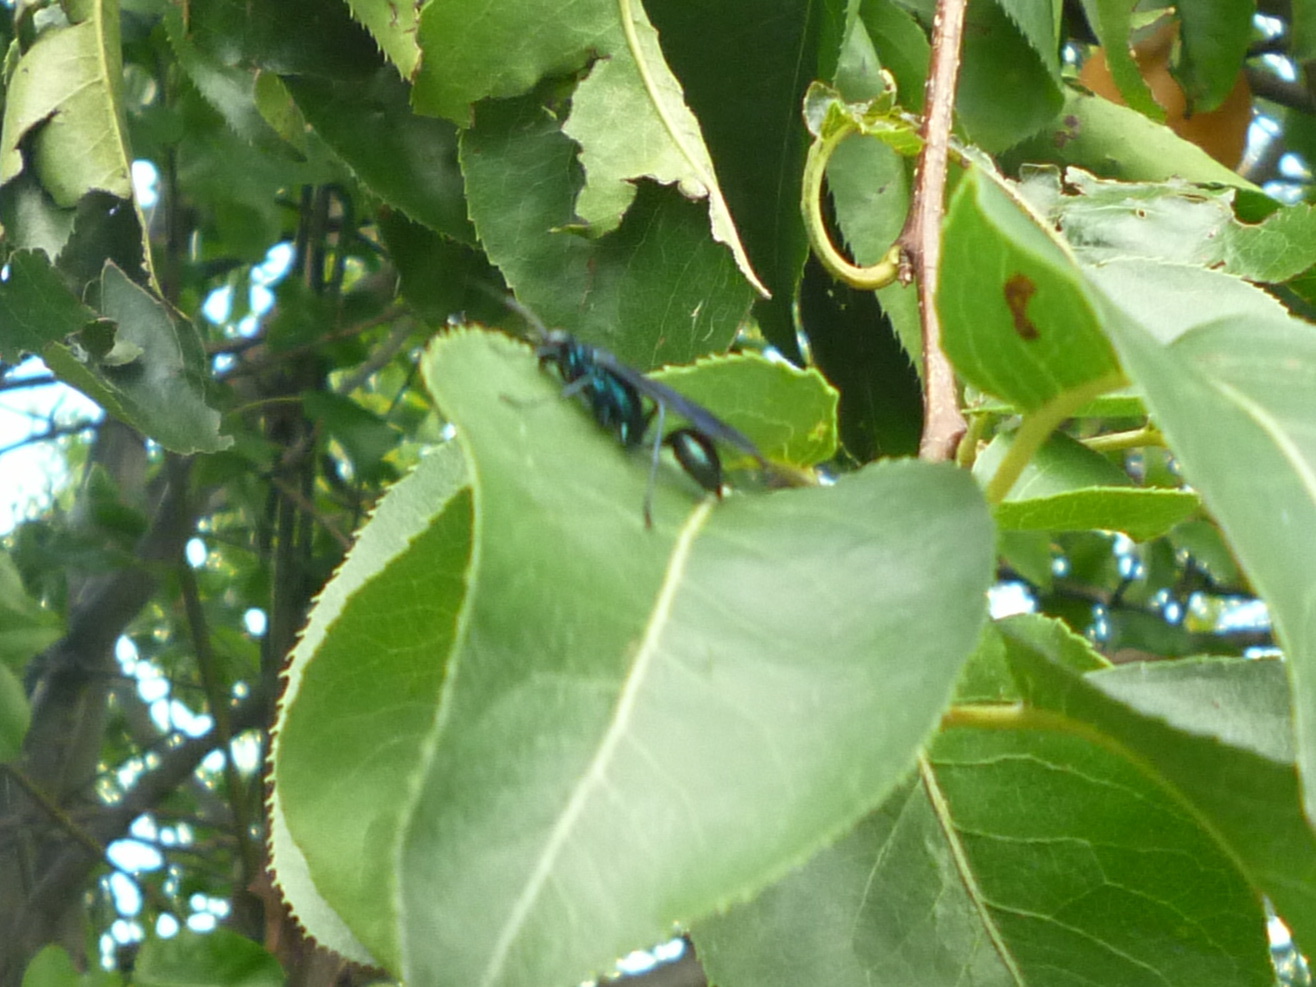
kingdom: Animalia
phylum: Arthropoda
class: Insecta
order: Hymenoptera
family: Sphecidae
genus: Chalybion
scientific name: Chalybion californicum
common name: Mud dauber
